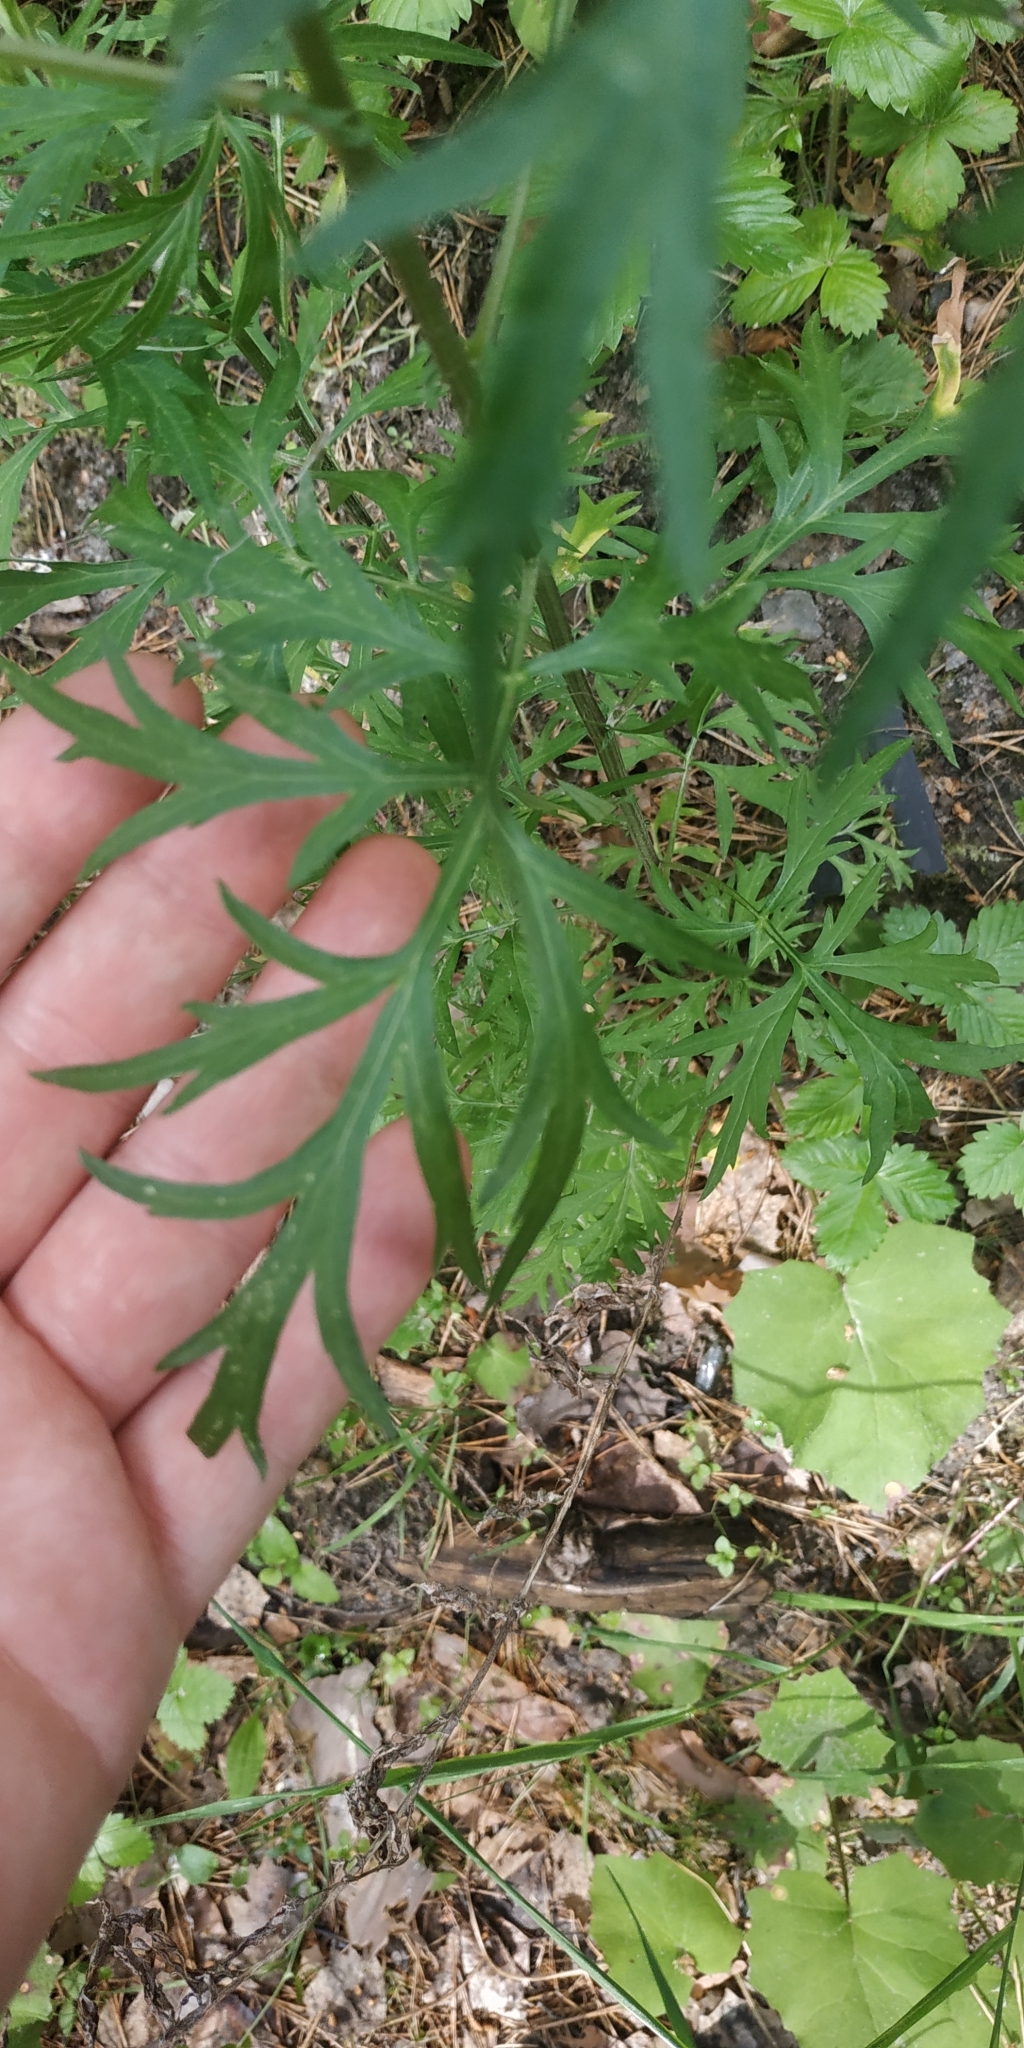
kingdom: Plantae
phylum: Tracheophyta
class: Magnoliopsida
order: Asterales
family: Asteraceae
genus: Artemisia
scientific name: Artemisia vulgaris
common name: Mugwort
